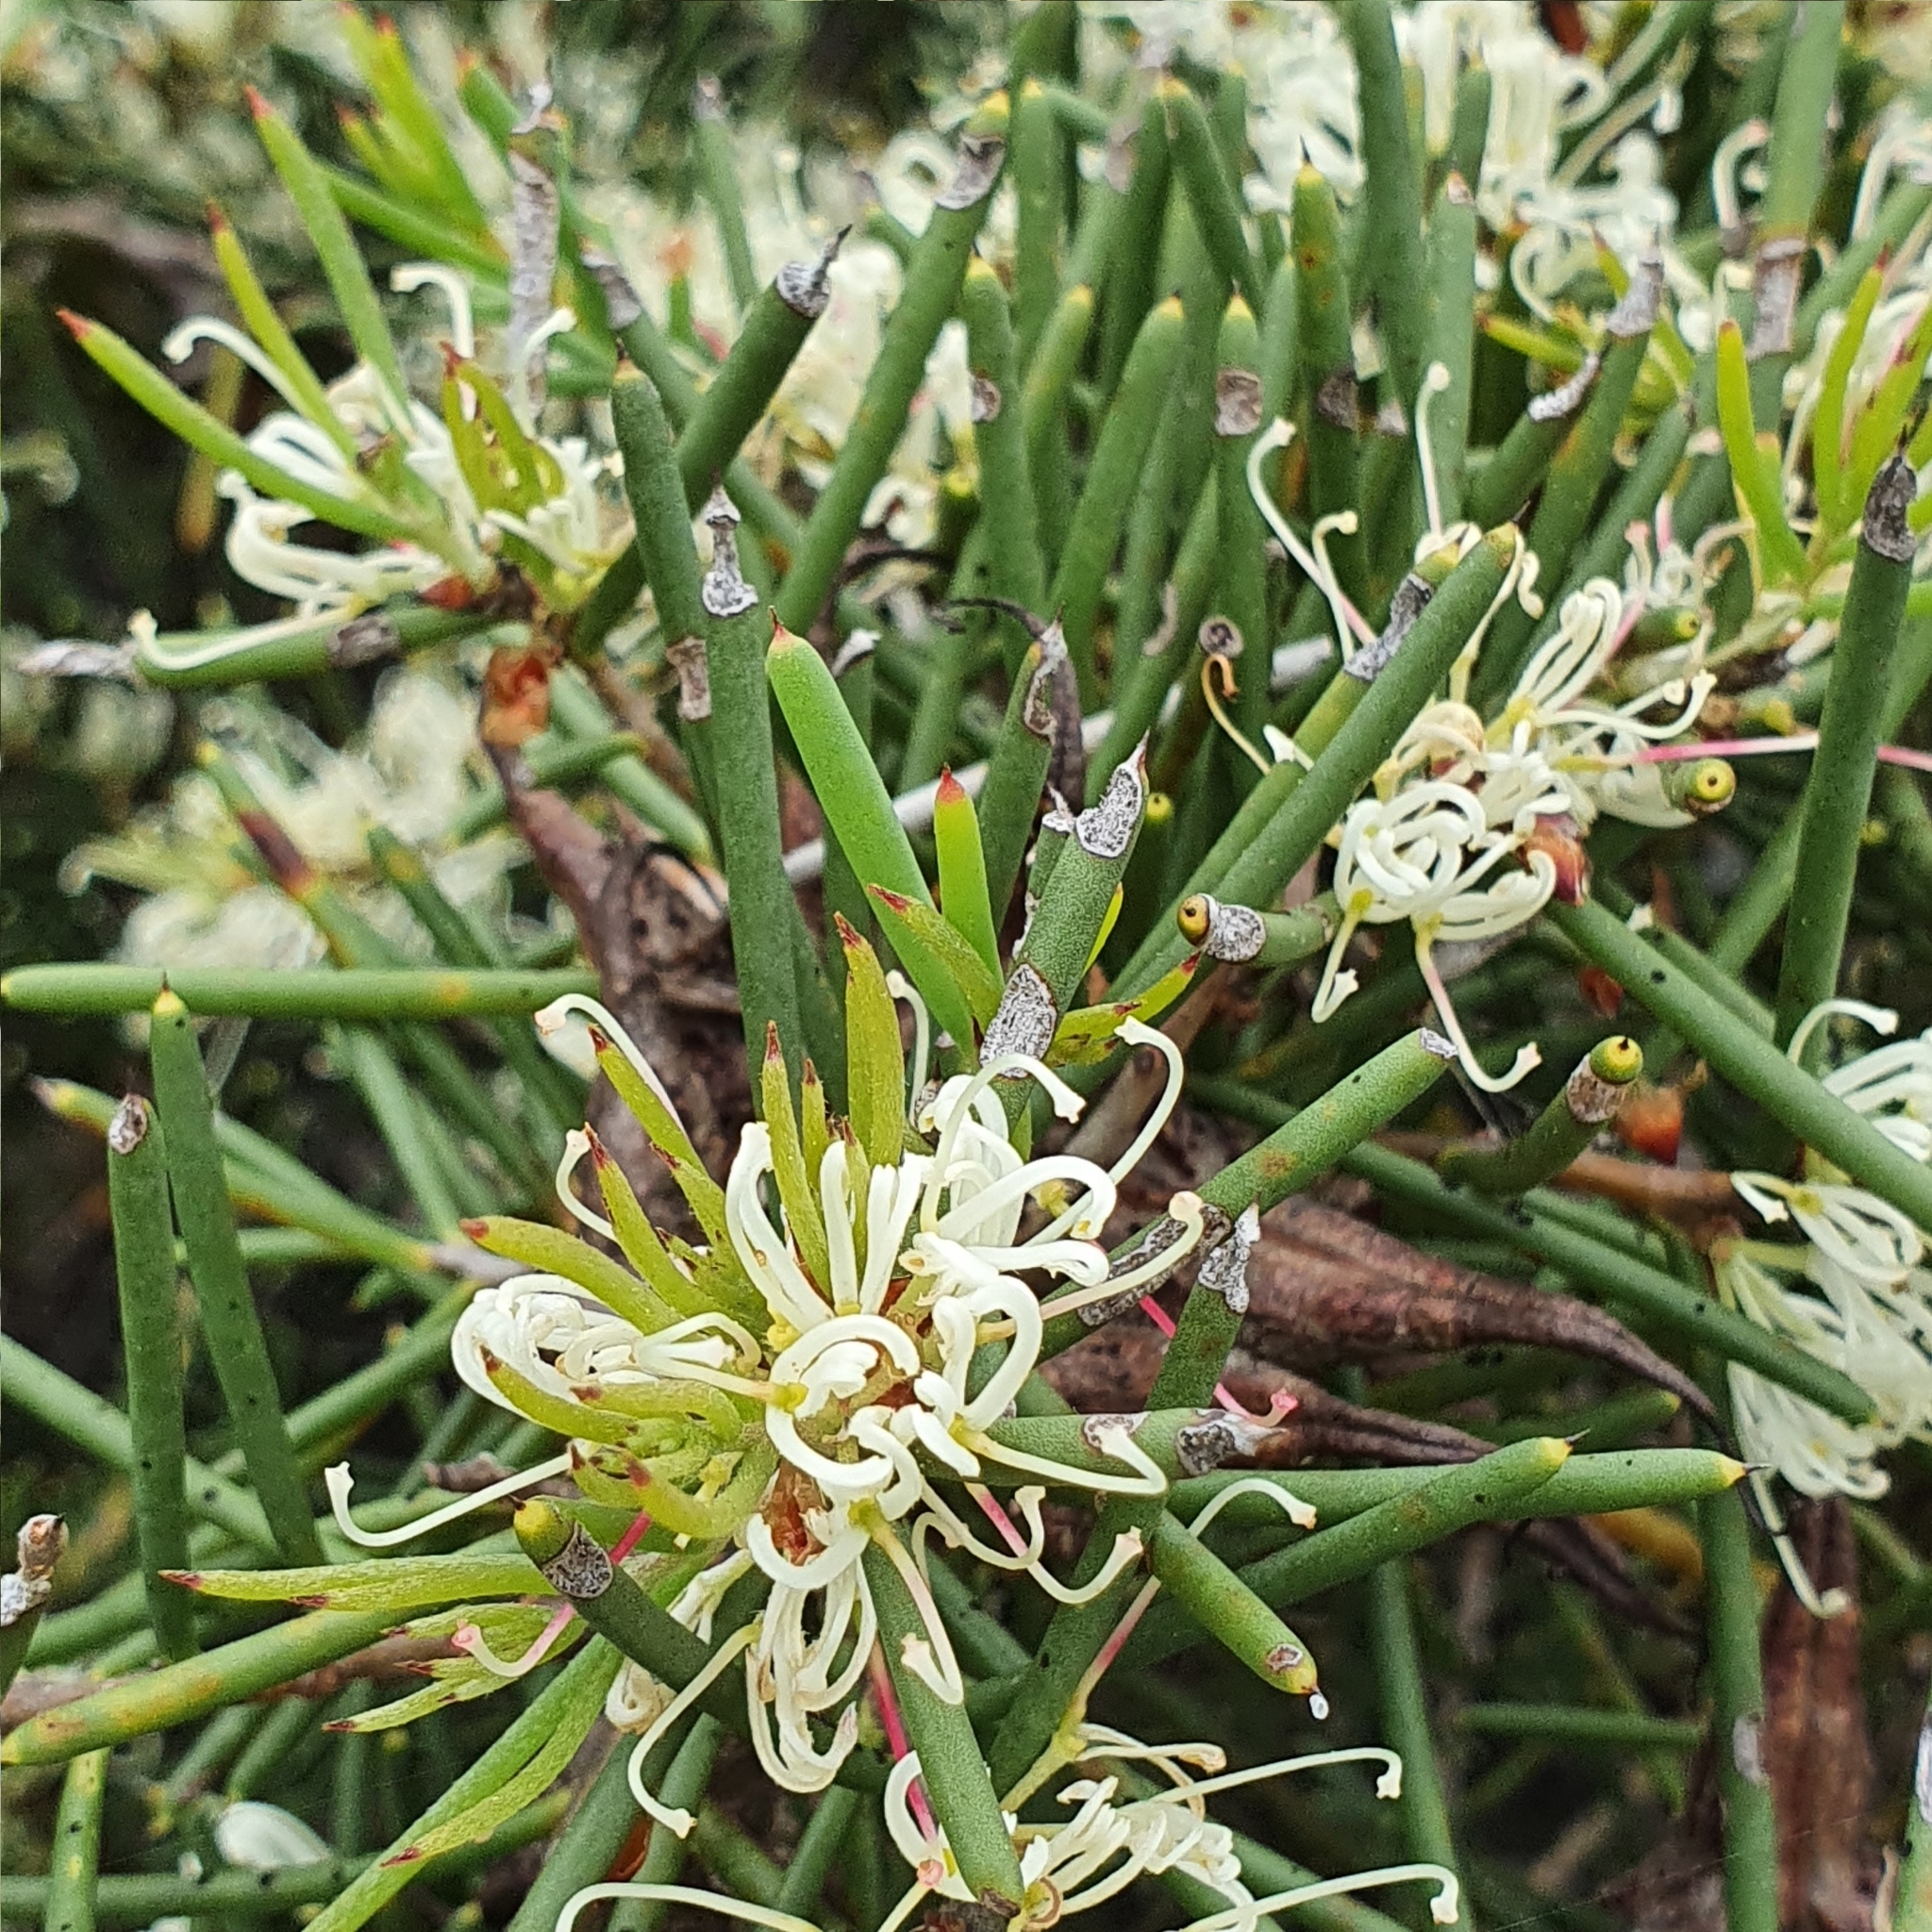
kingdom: Plantae
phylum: Tracheophyta
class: Magnoliopsida
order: Proteales
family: Proteaceae
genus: Hakea
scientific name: Hakea teretifolia
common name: Dagger hakea
